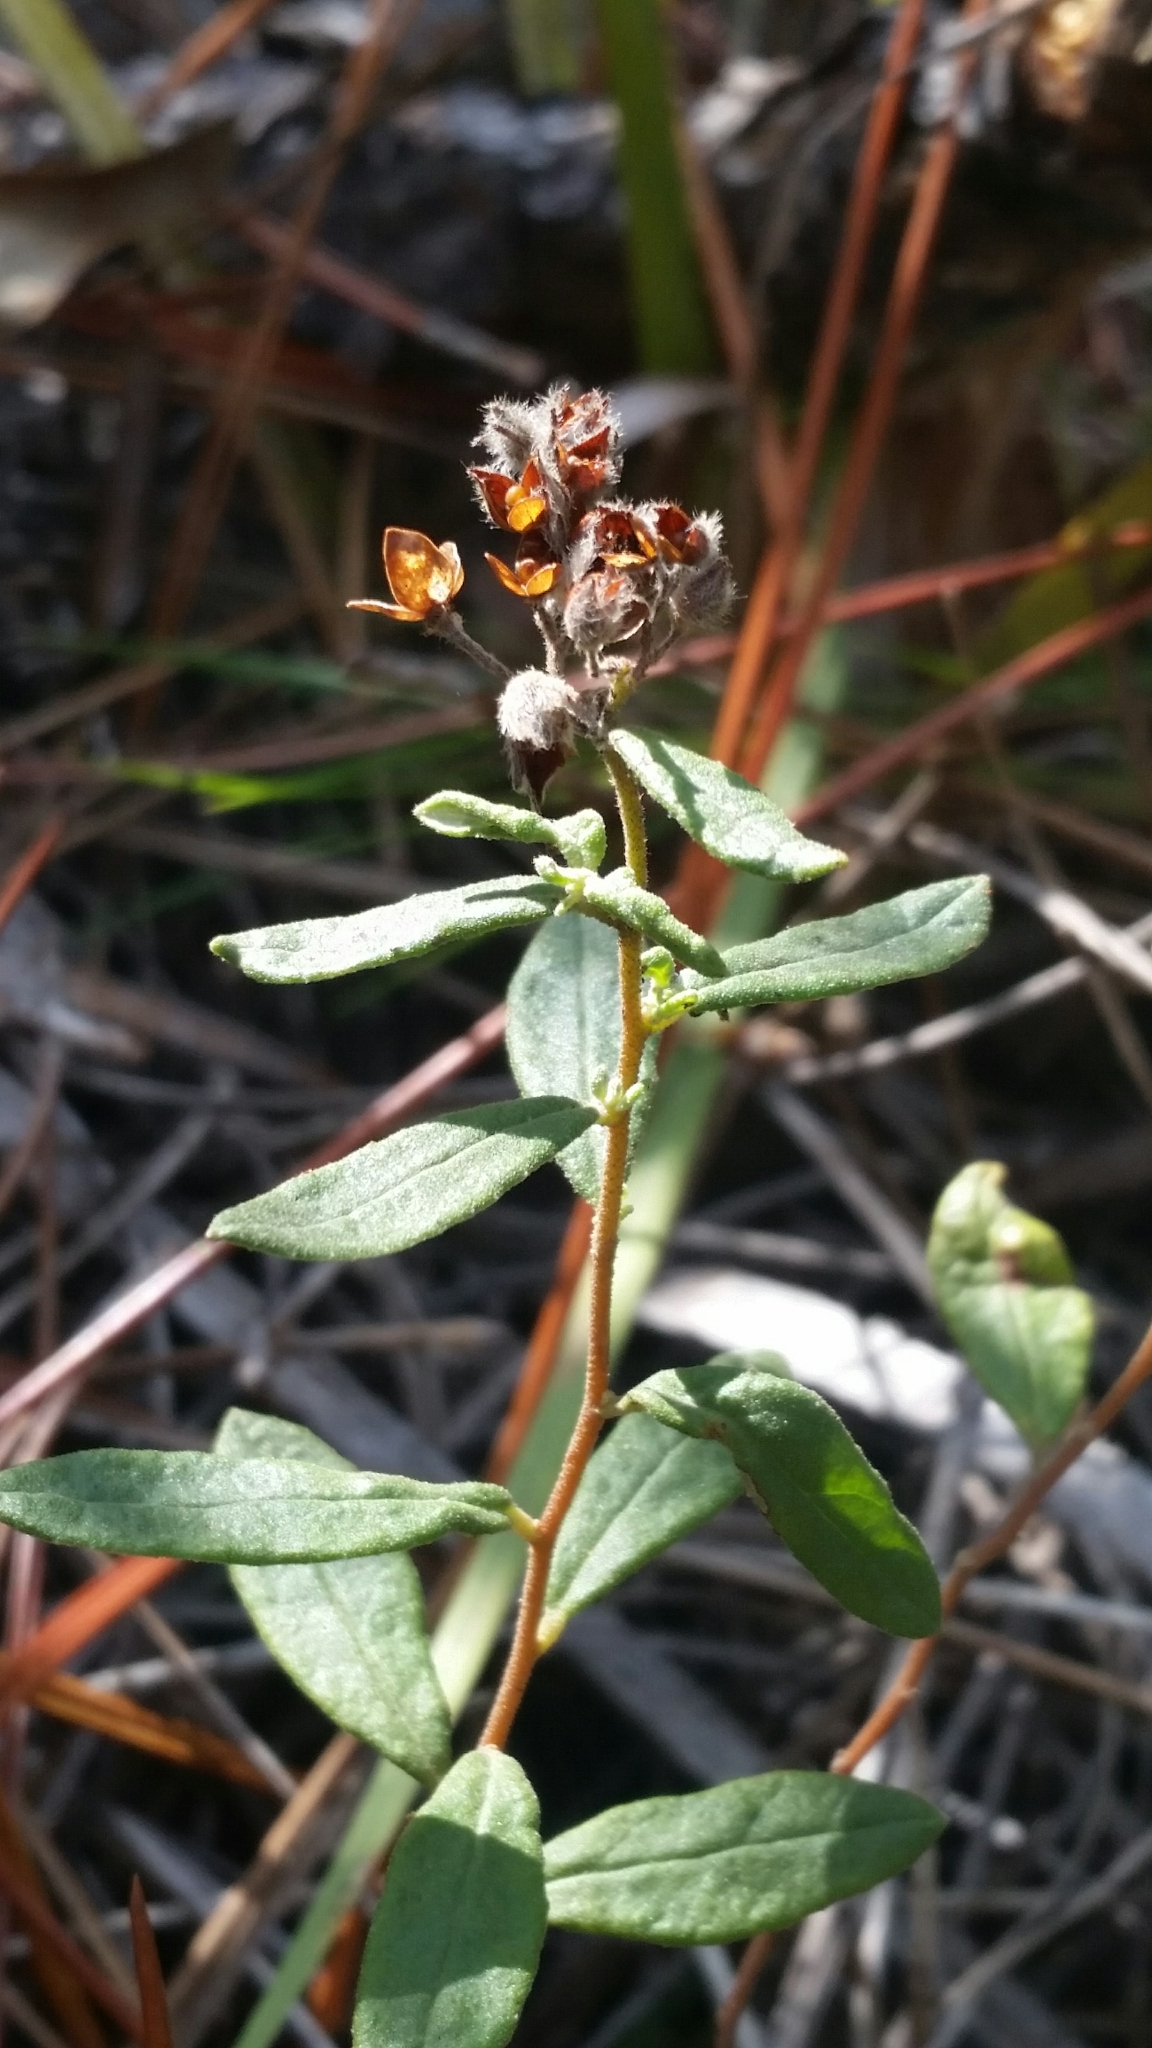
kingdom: Plantae
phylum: Tracheophyta
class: Magnoliopsida
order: Malvales
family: Cistaceae
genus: Crocanthemum
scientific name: Crocanthemum corymbosum
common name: Pinebarren sun-rose
